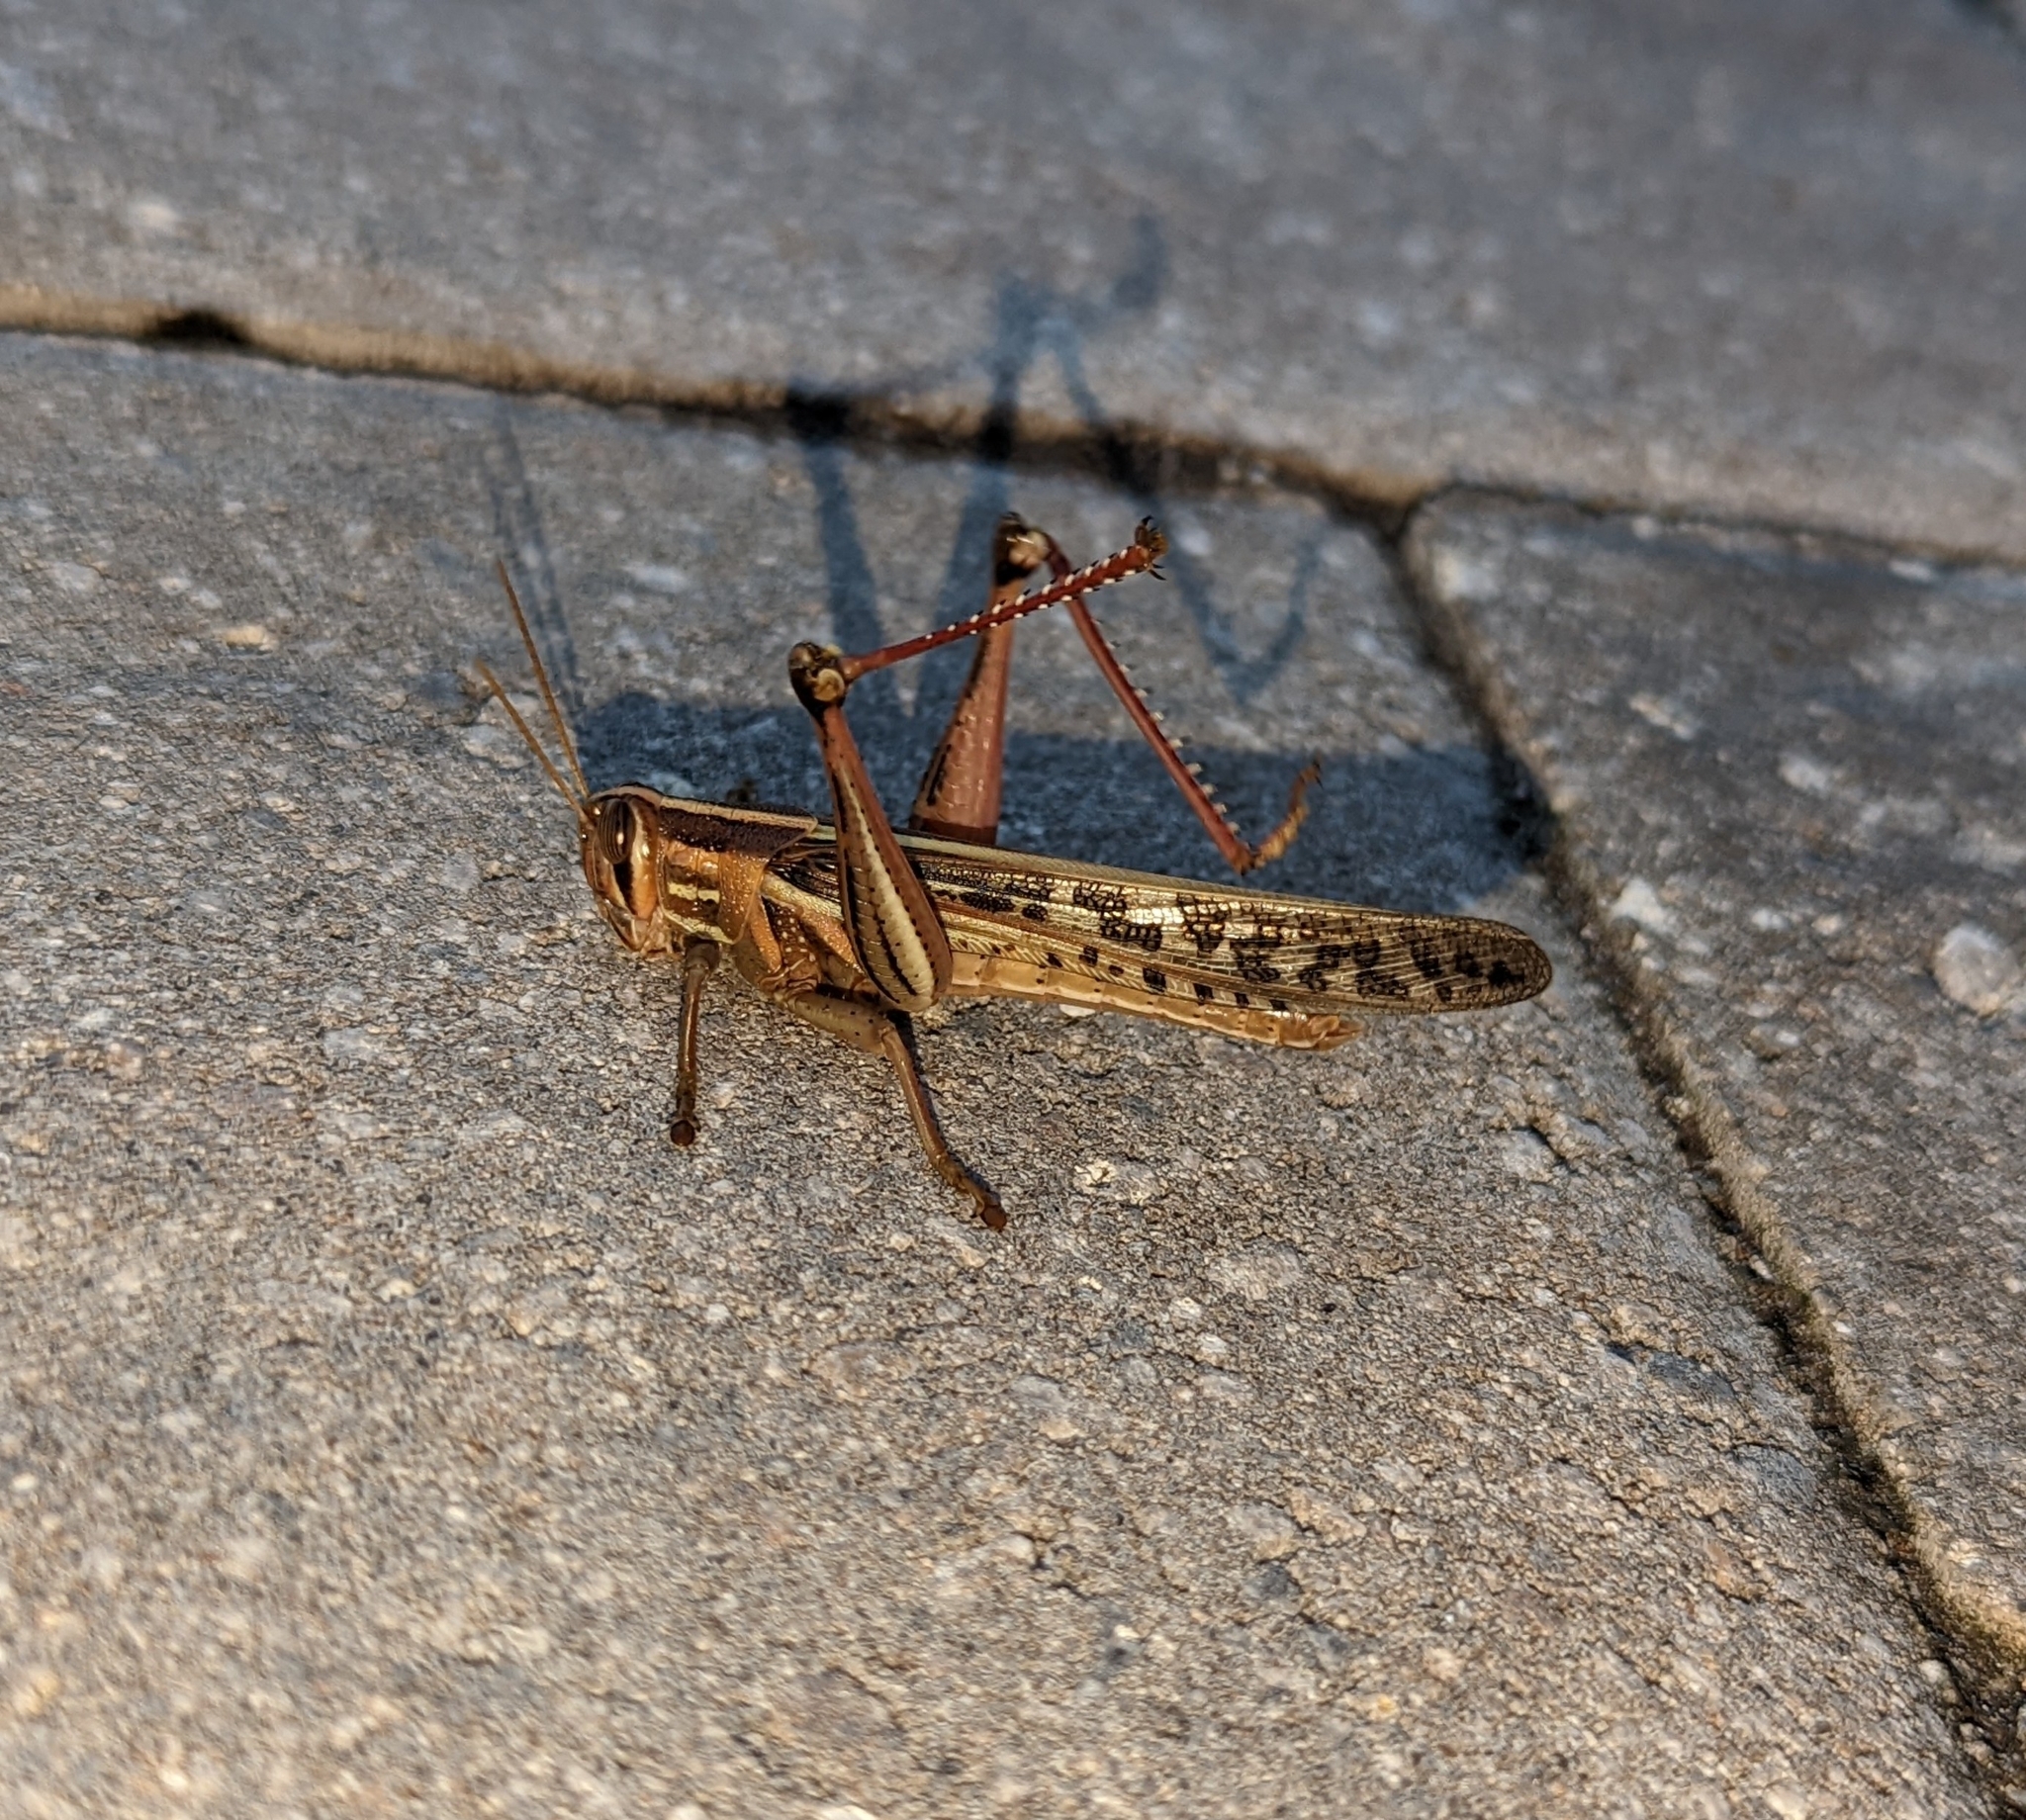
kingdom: Animalia
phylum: Arthropoda
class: Insecta
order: Orthoptera
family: Acrididae
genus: Schistocerca
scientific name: Schistocerca americana
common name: American bird locust
